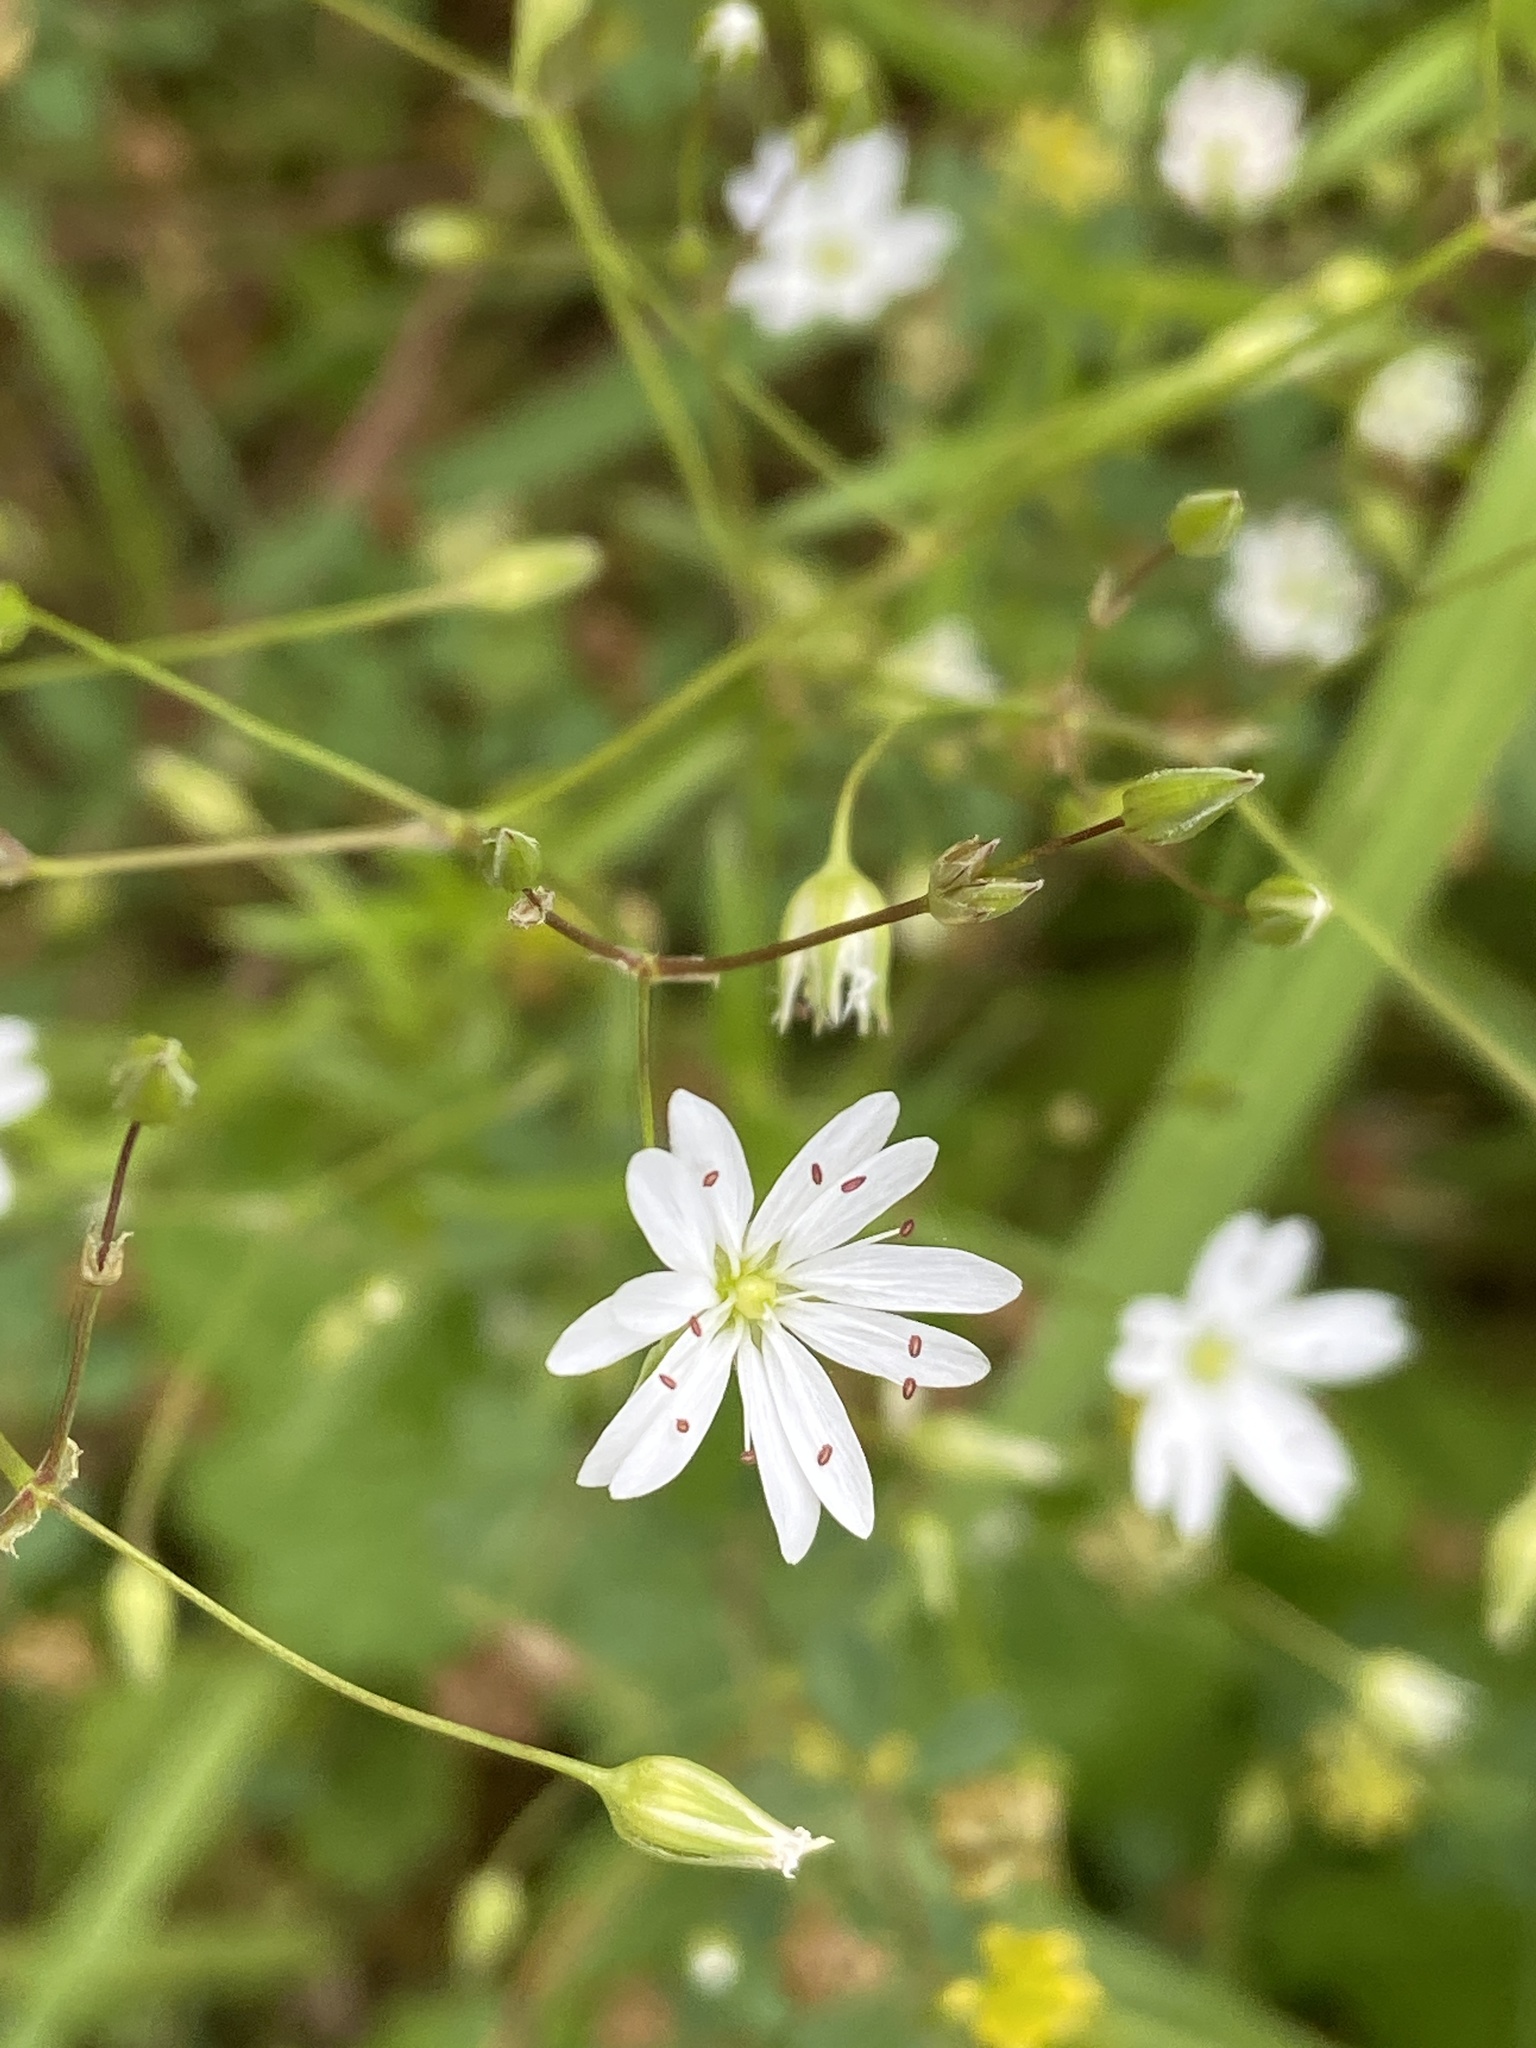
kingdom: Plantae
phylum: Tracheophyta
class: Magnoliopsida
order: Caryophyllales
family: Caryophyllaceae
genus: Stellaria
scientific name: Stellaria graminea
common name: Grass-like starwort
